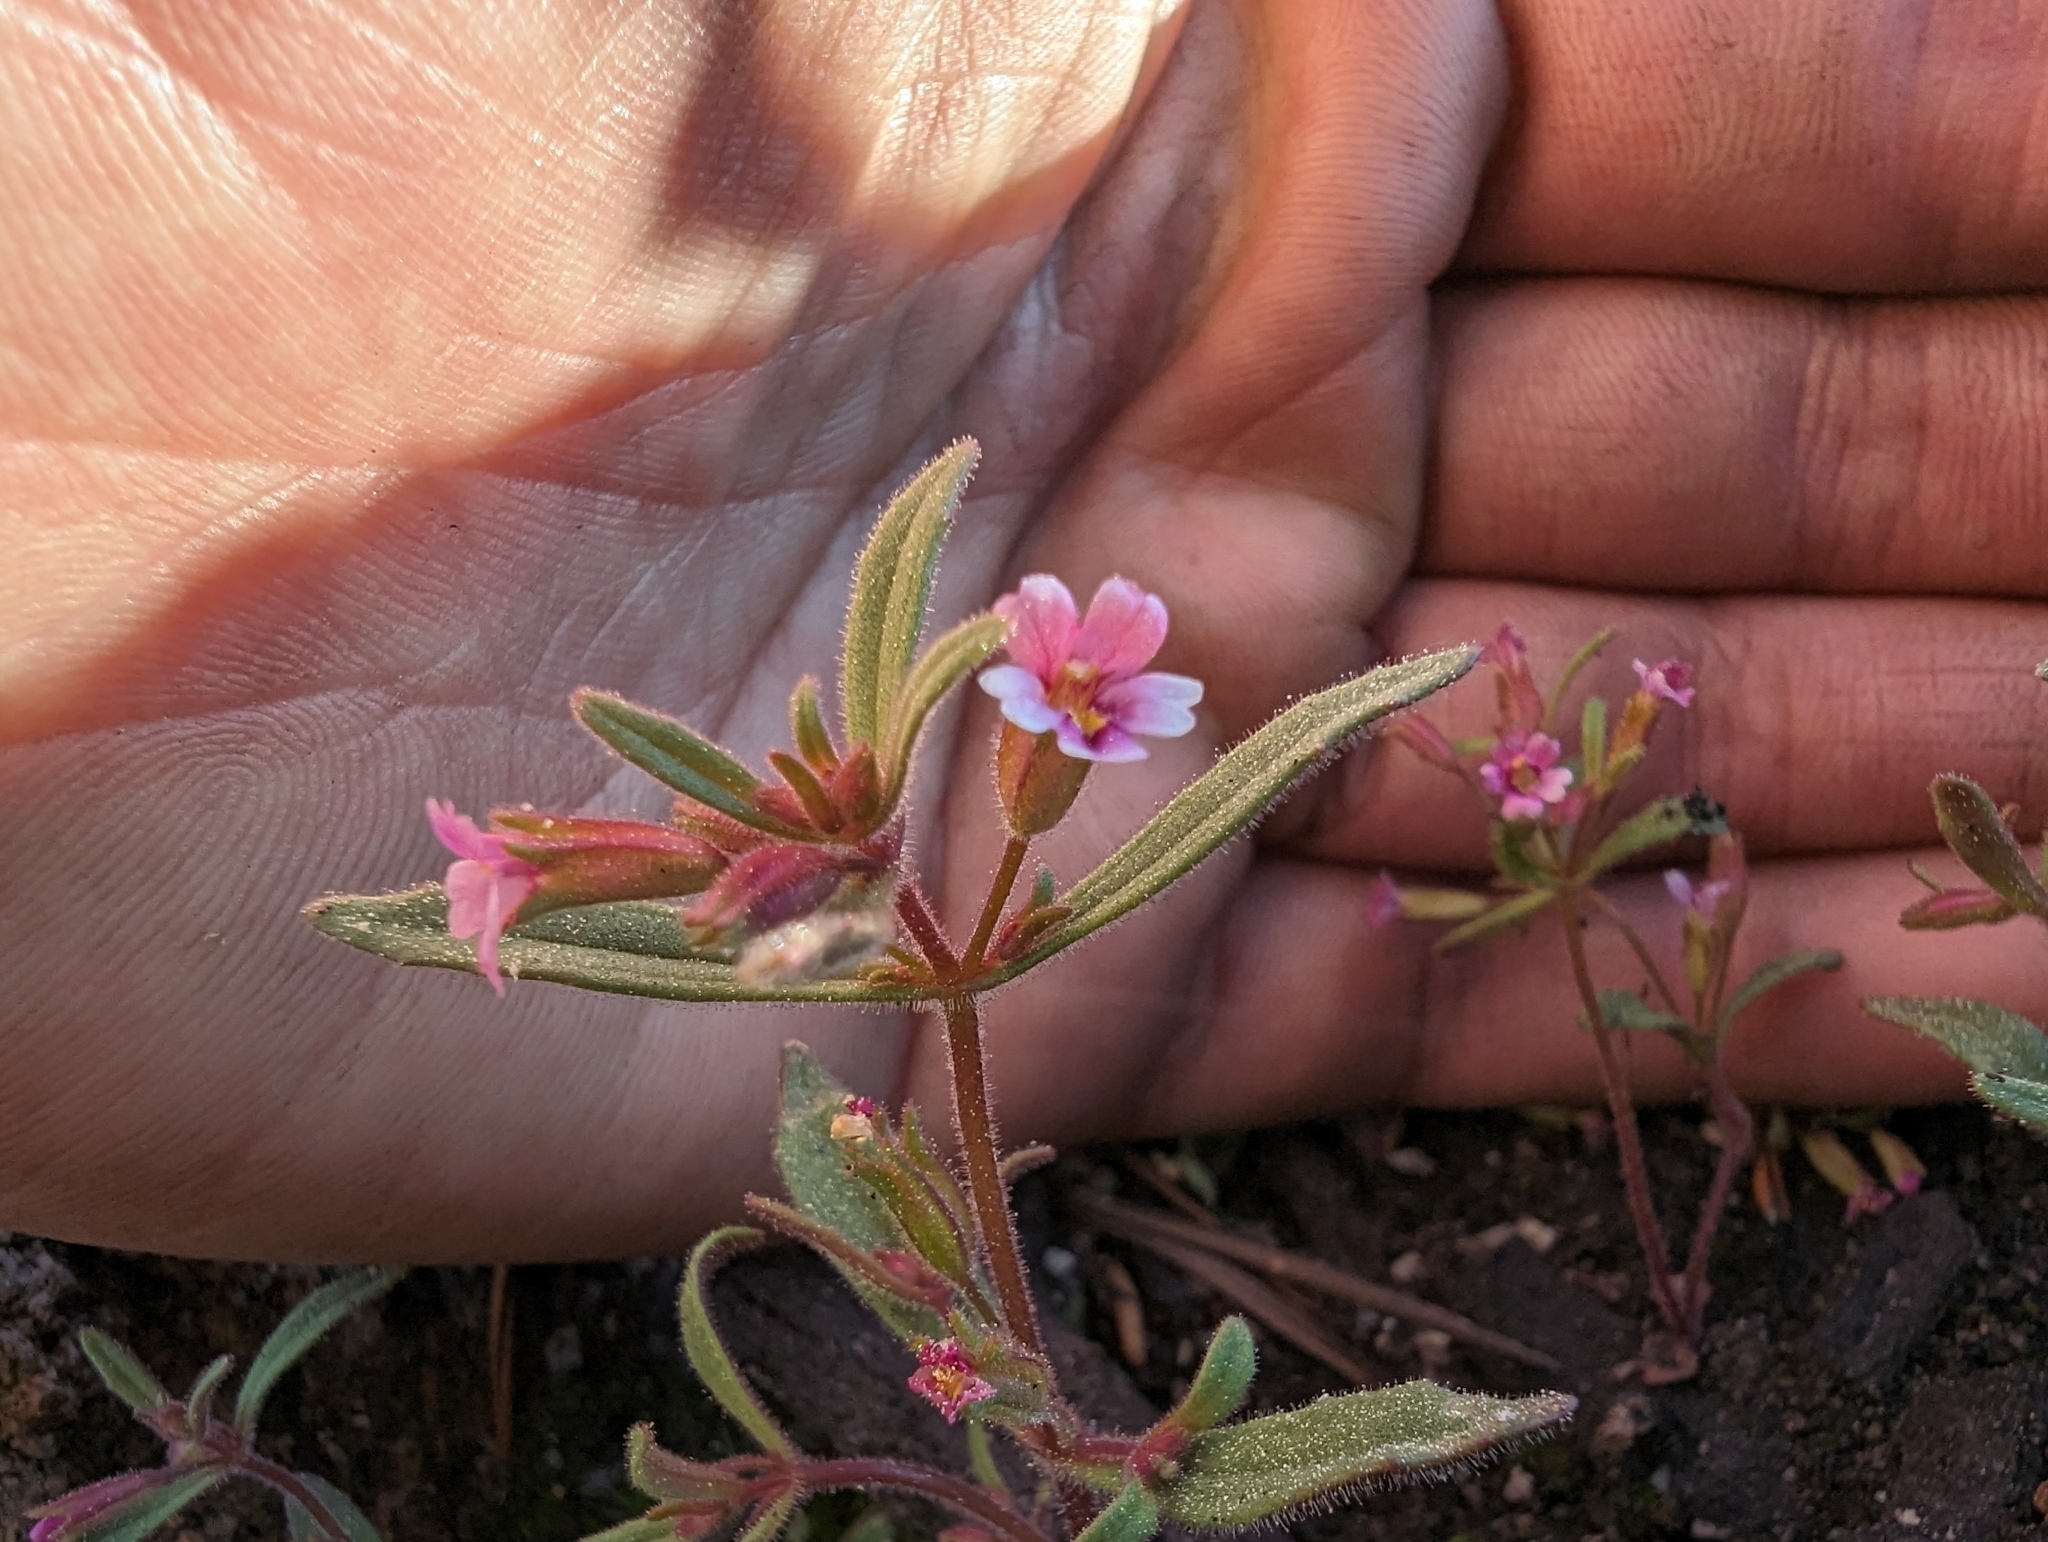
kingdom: Plantae
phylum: Tracheophyta
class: Magnoliopsida
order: Lamiales
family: Phrymaceae
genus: Erythranthe
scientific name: Erythranthe breweri
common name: Brewer's monkeyflower
